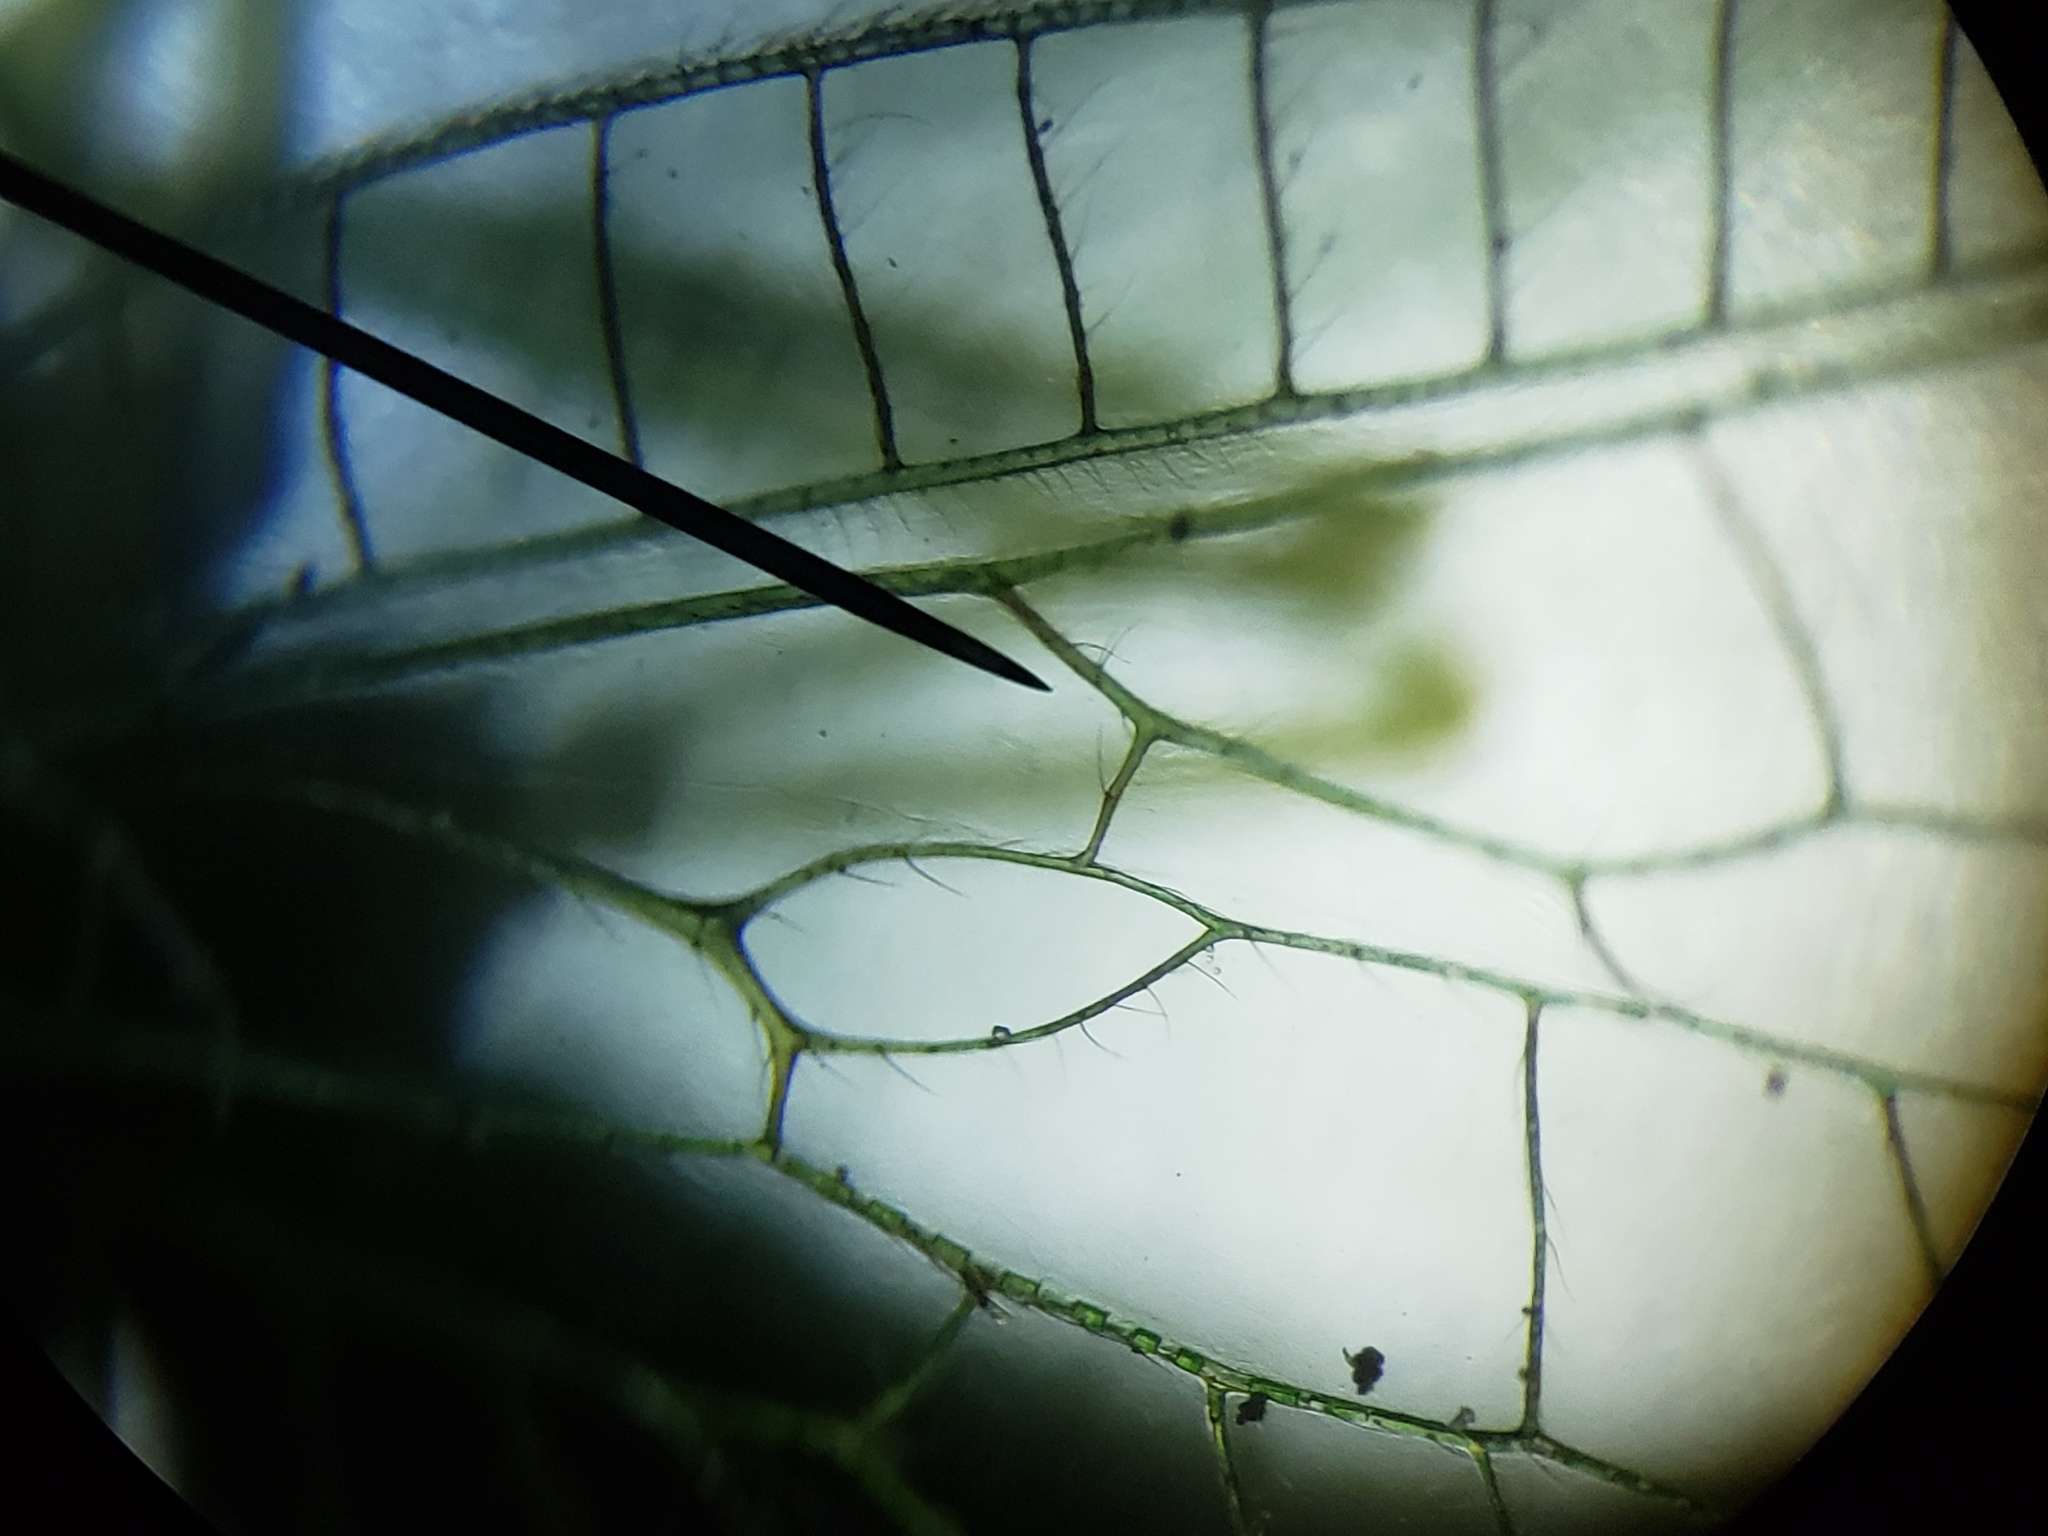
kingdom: Animalia
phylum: Arthropoda
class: Insecta
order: Neuroptera
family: Chrysopidae
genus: Chrysopodes
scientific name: Chrysopodes collaris
